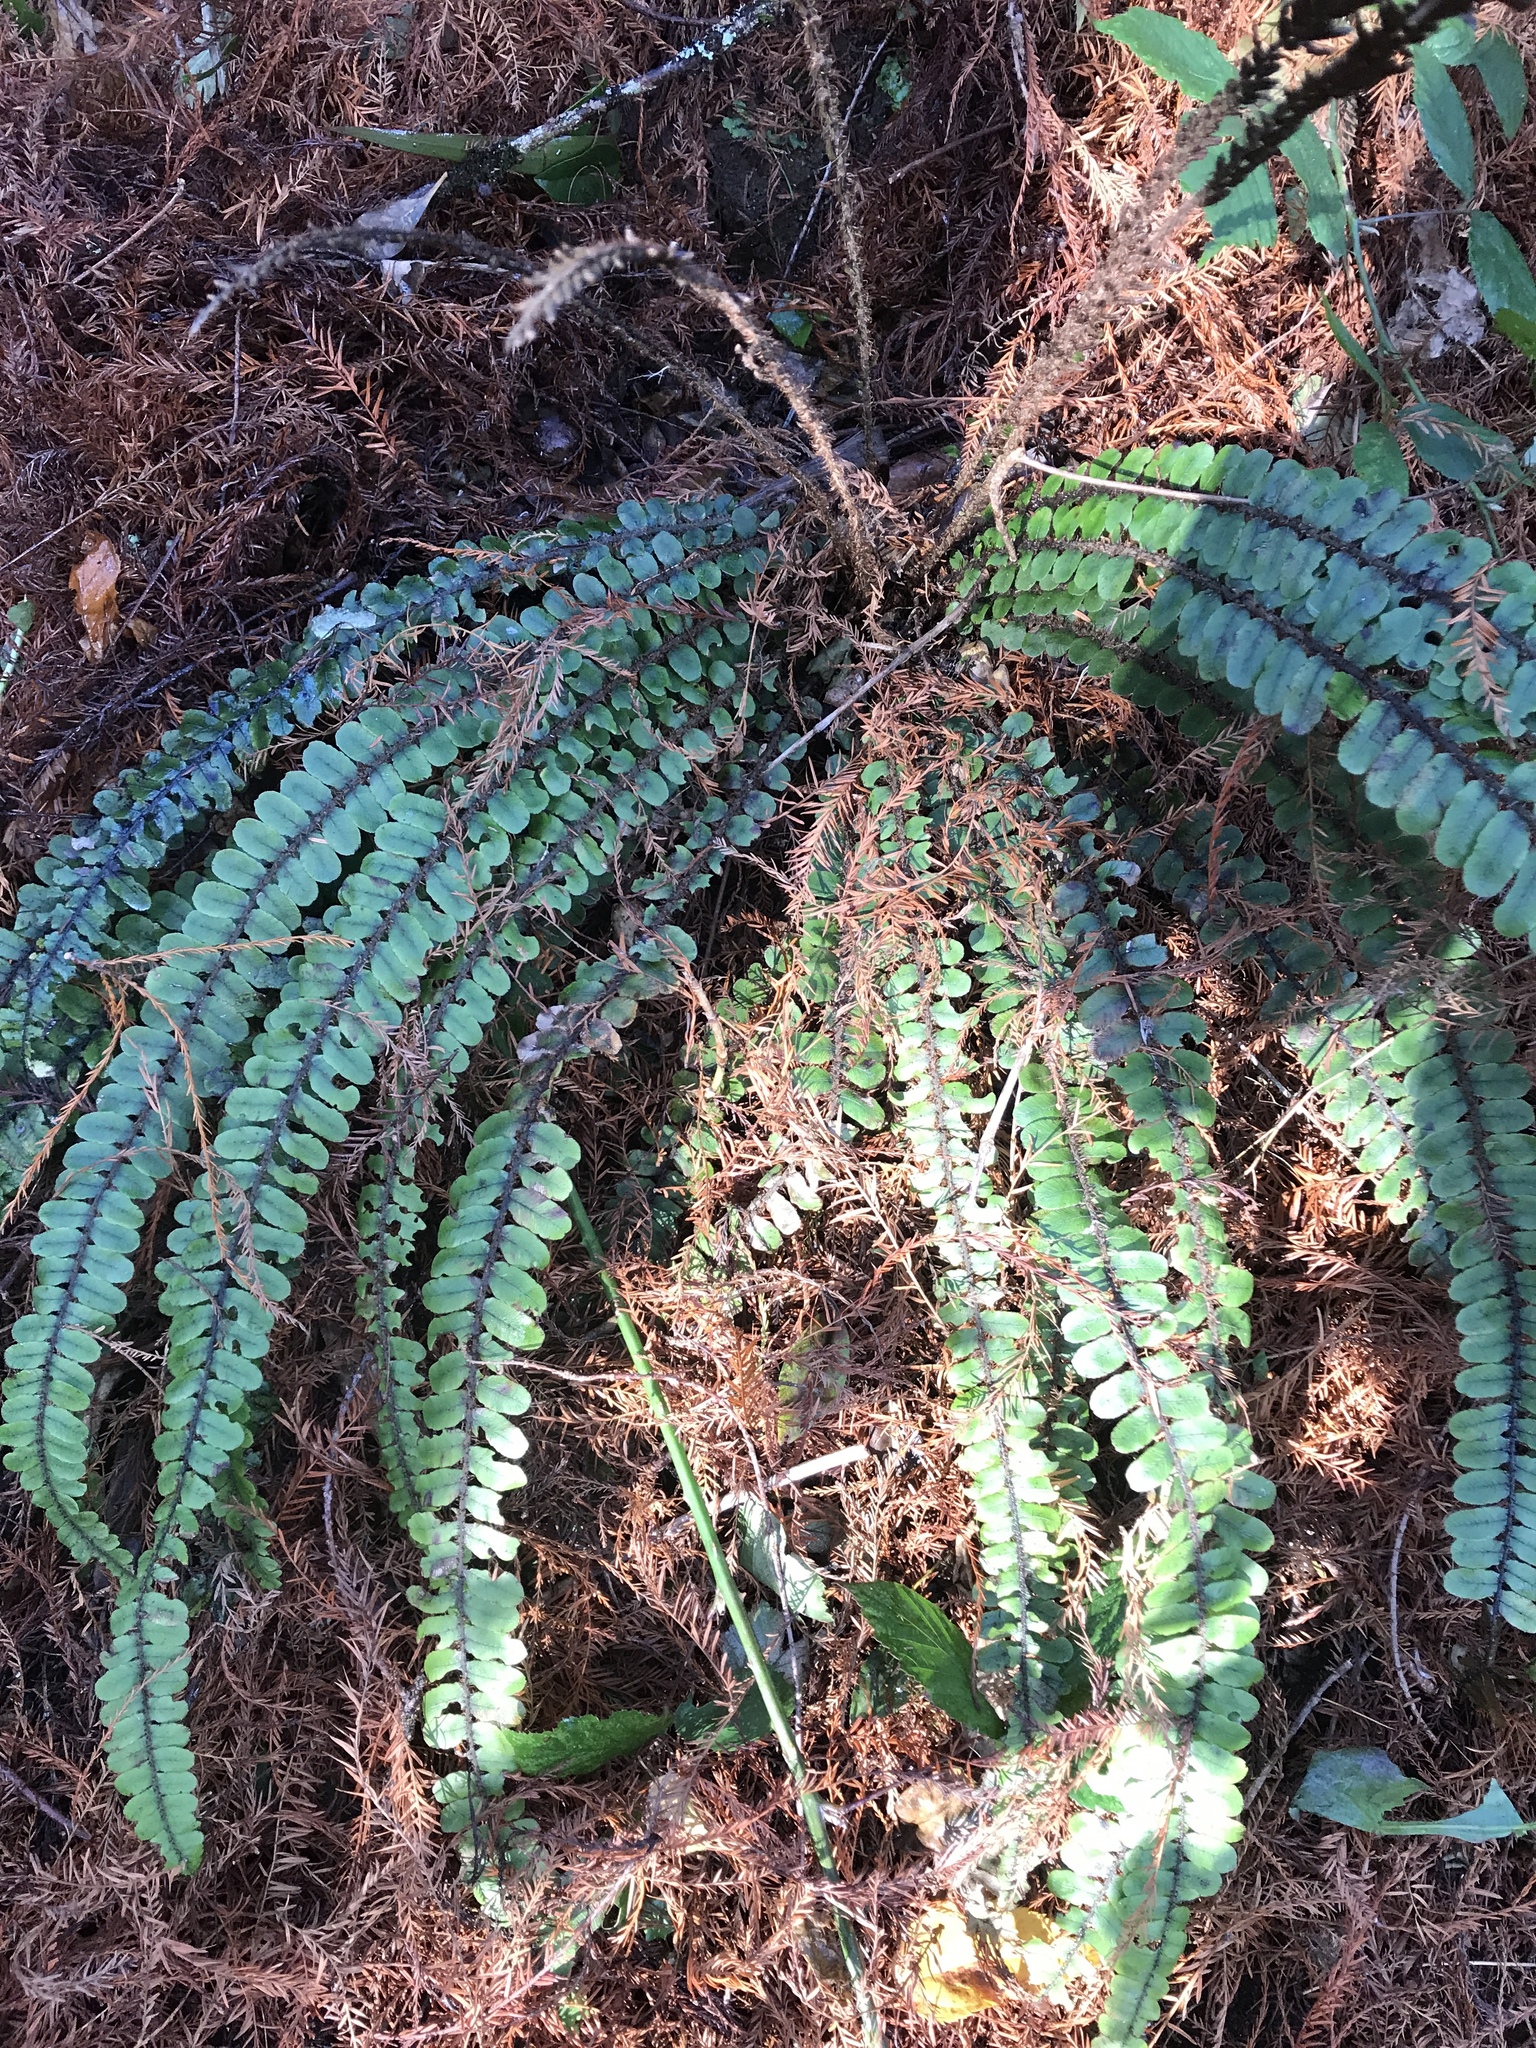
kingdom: Plantae
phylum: Tracheophyta
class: Polypodiopsida
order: Polypodiales
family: Blechnaceae
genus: Cranfillia
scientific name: Cranfillia fluviatilis
